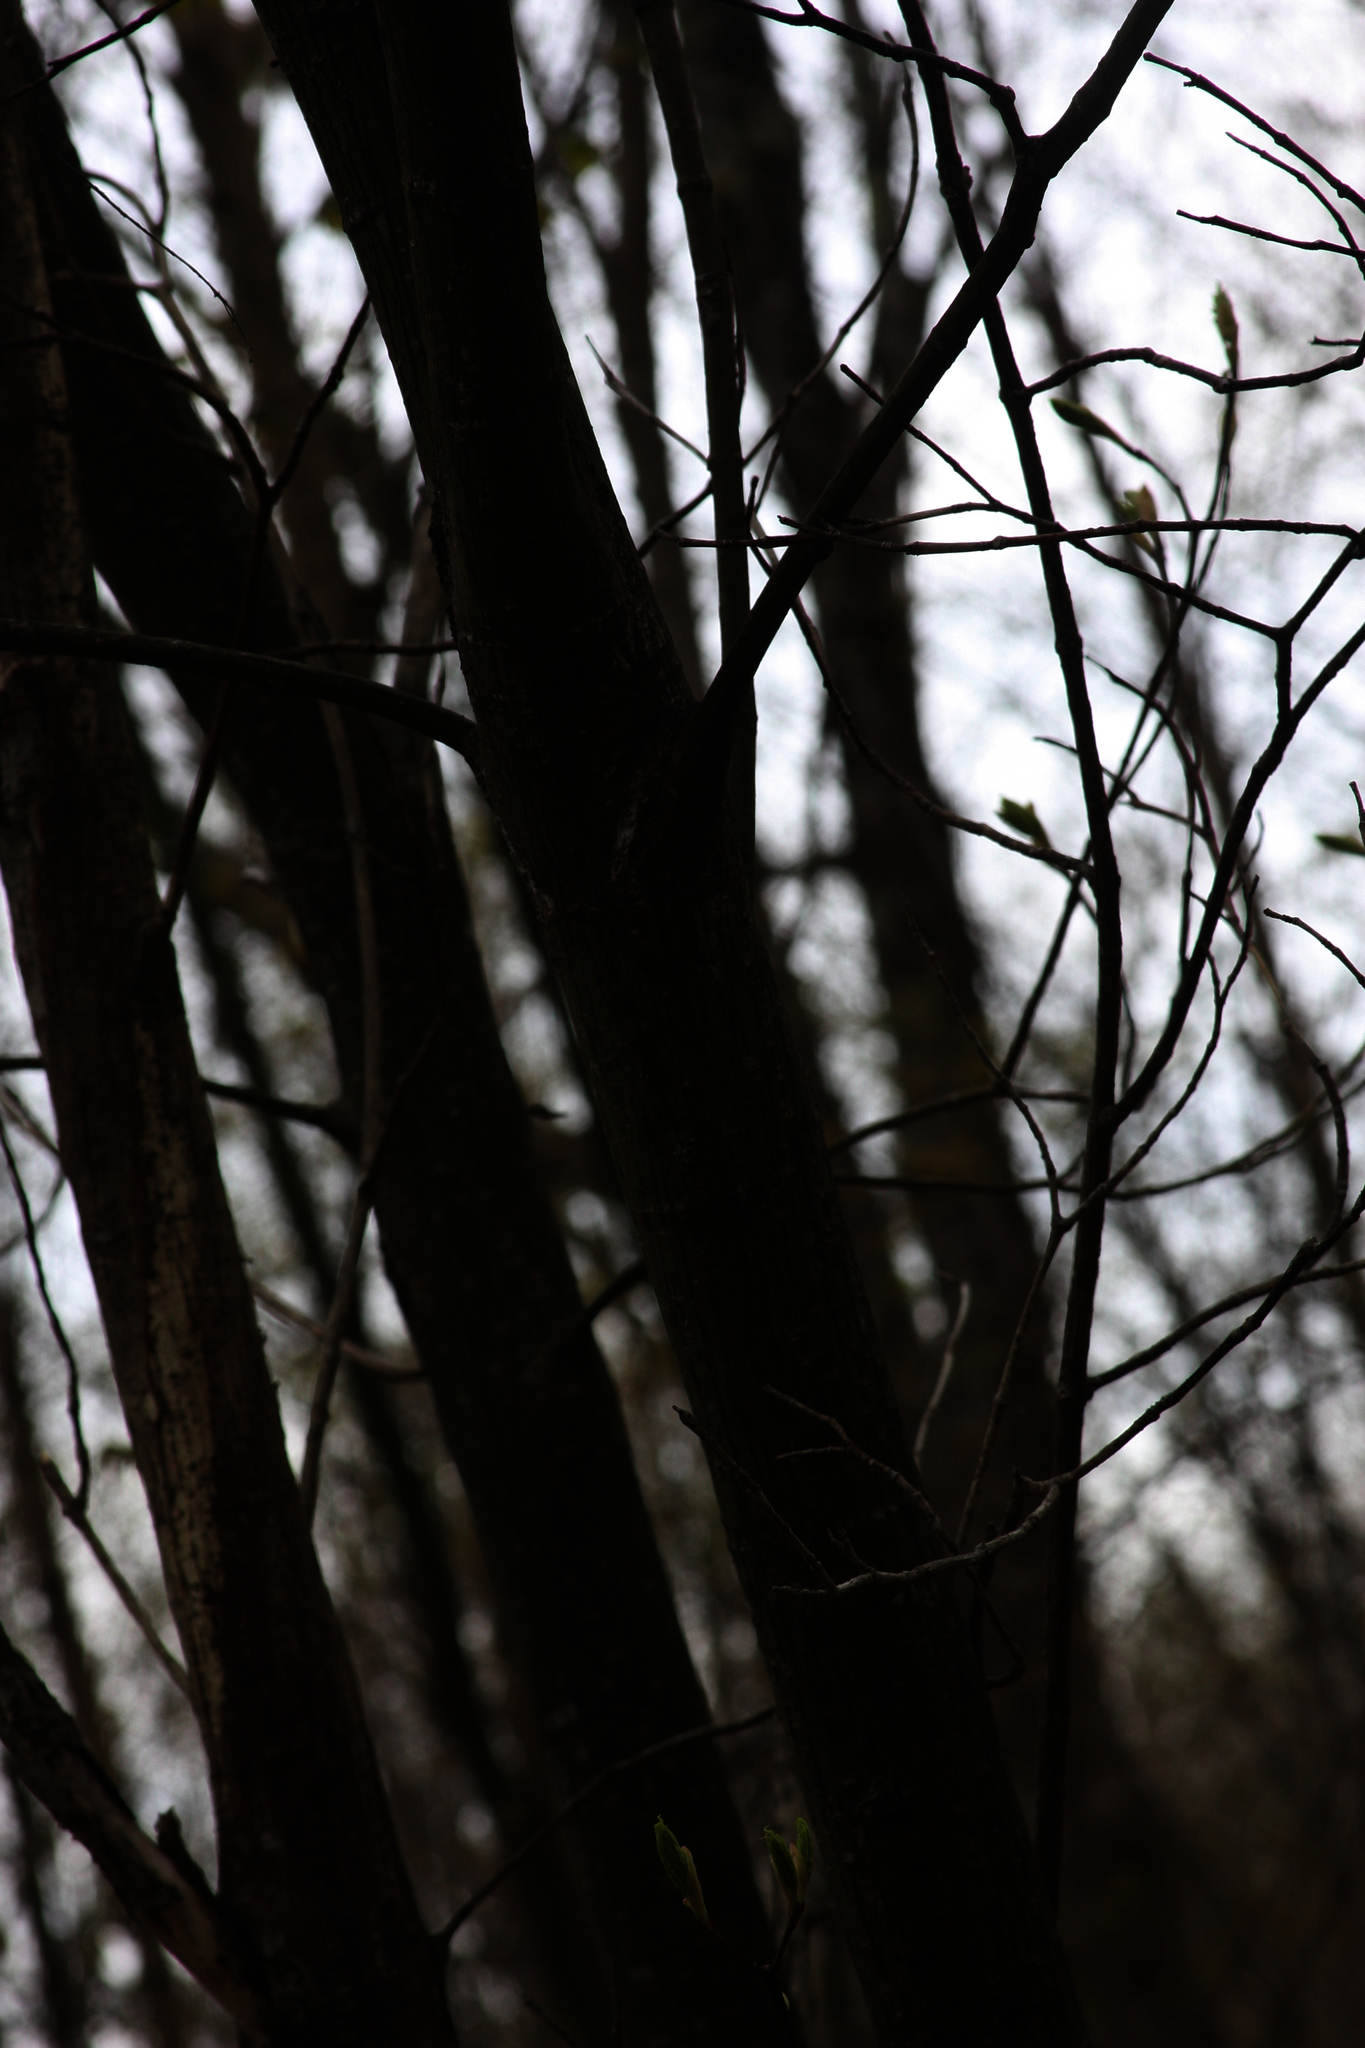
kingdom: Plantae
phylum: Tracheophyta
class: Magnoliopsida
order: Sapindales
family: Sapindaceae
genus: Acer
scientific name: Acer pensylvanicum
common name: Moosewood
